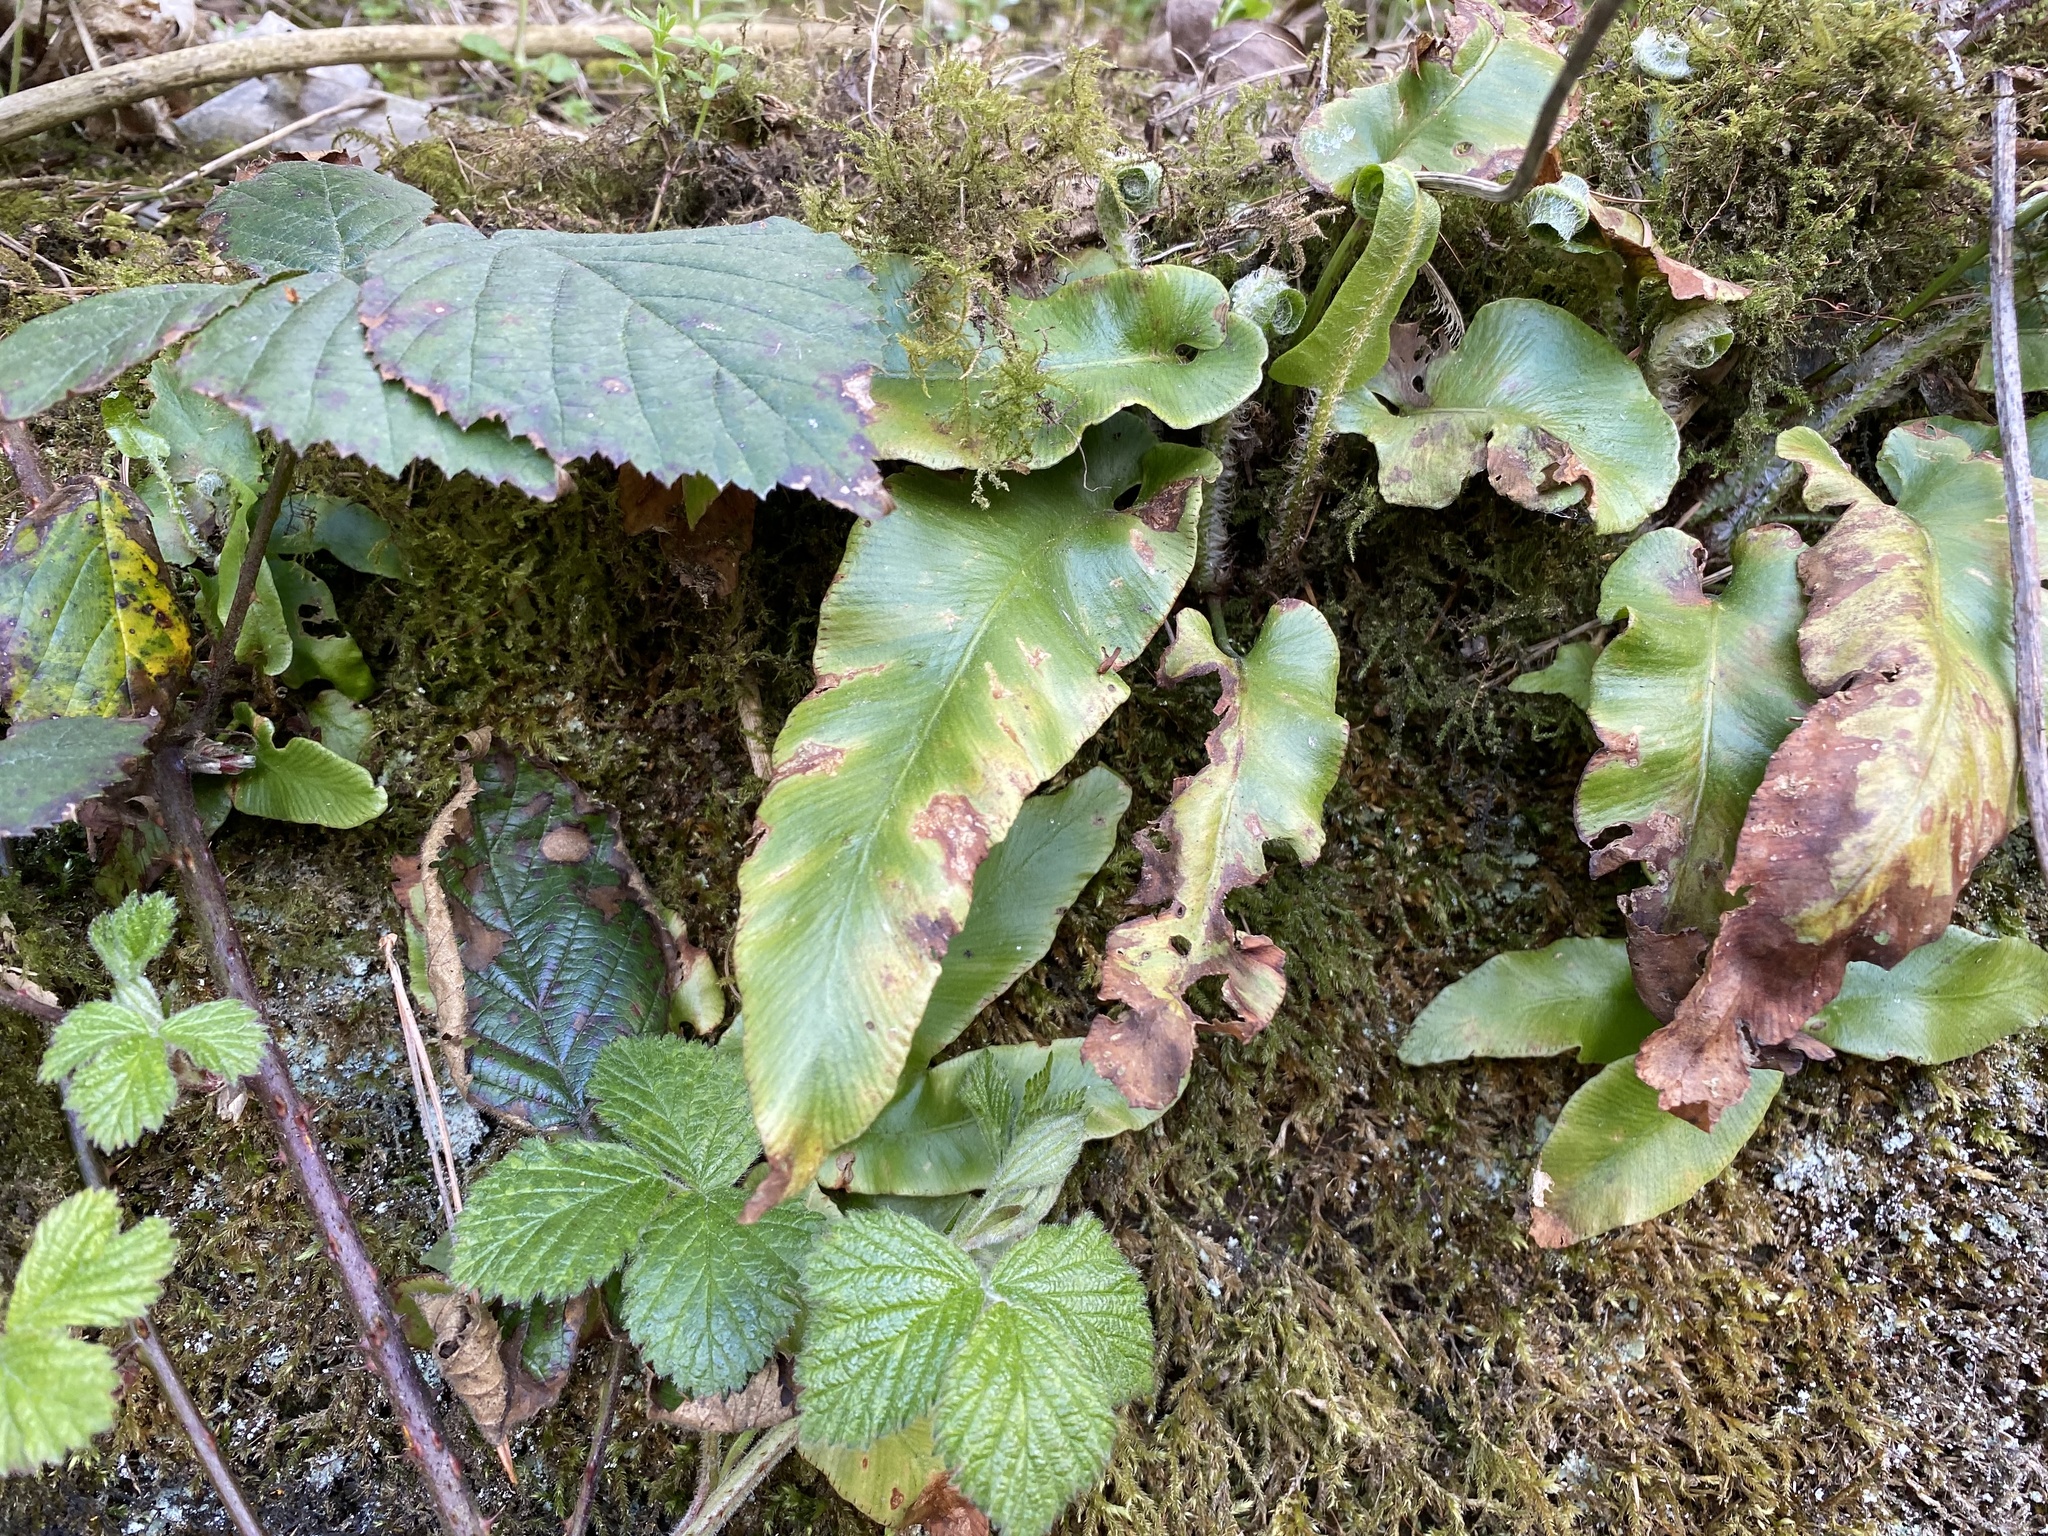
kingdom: Plantae
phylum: Tracheophyta
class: Polypodiopsida
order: Polypodiales
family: Aspleniaceae
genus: Asplenium
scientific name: Asplenium scolopendrium
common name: Hart's-tongue fern
